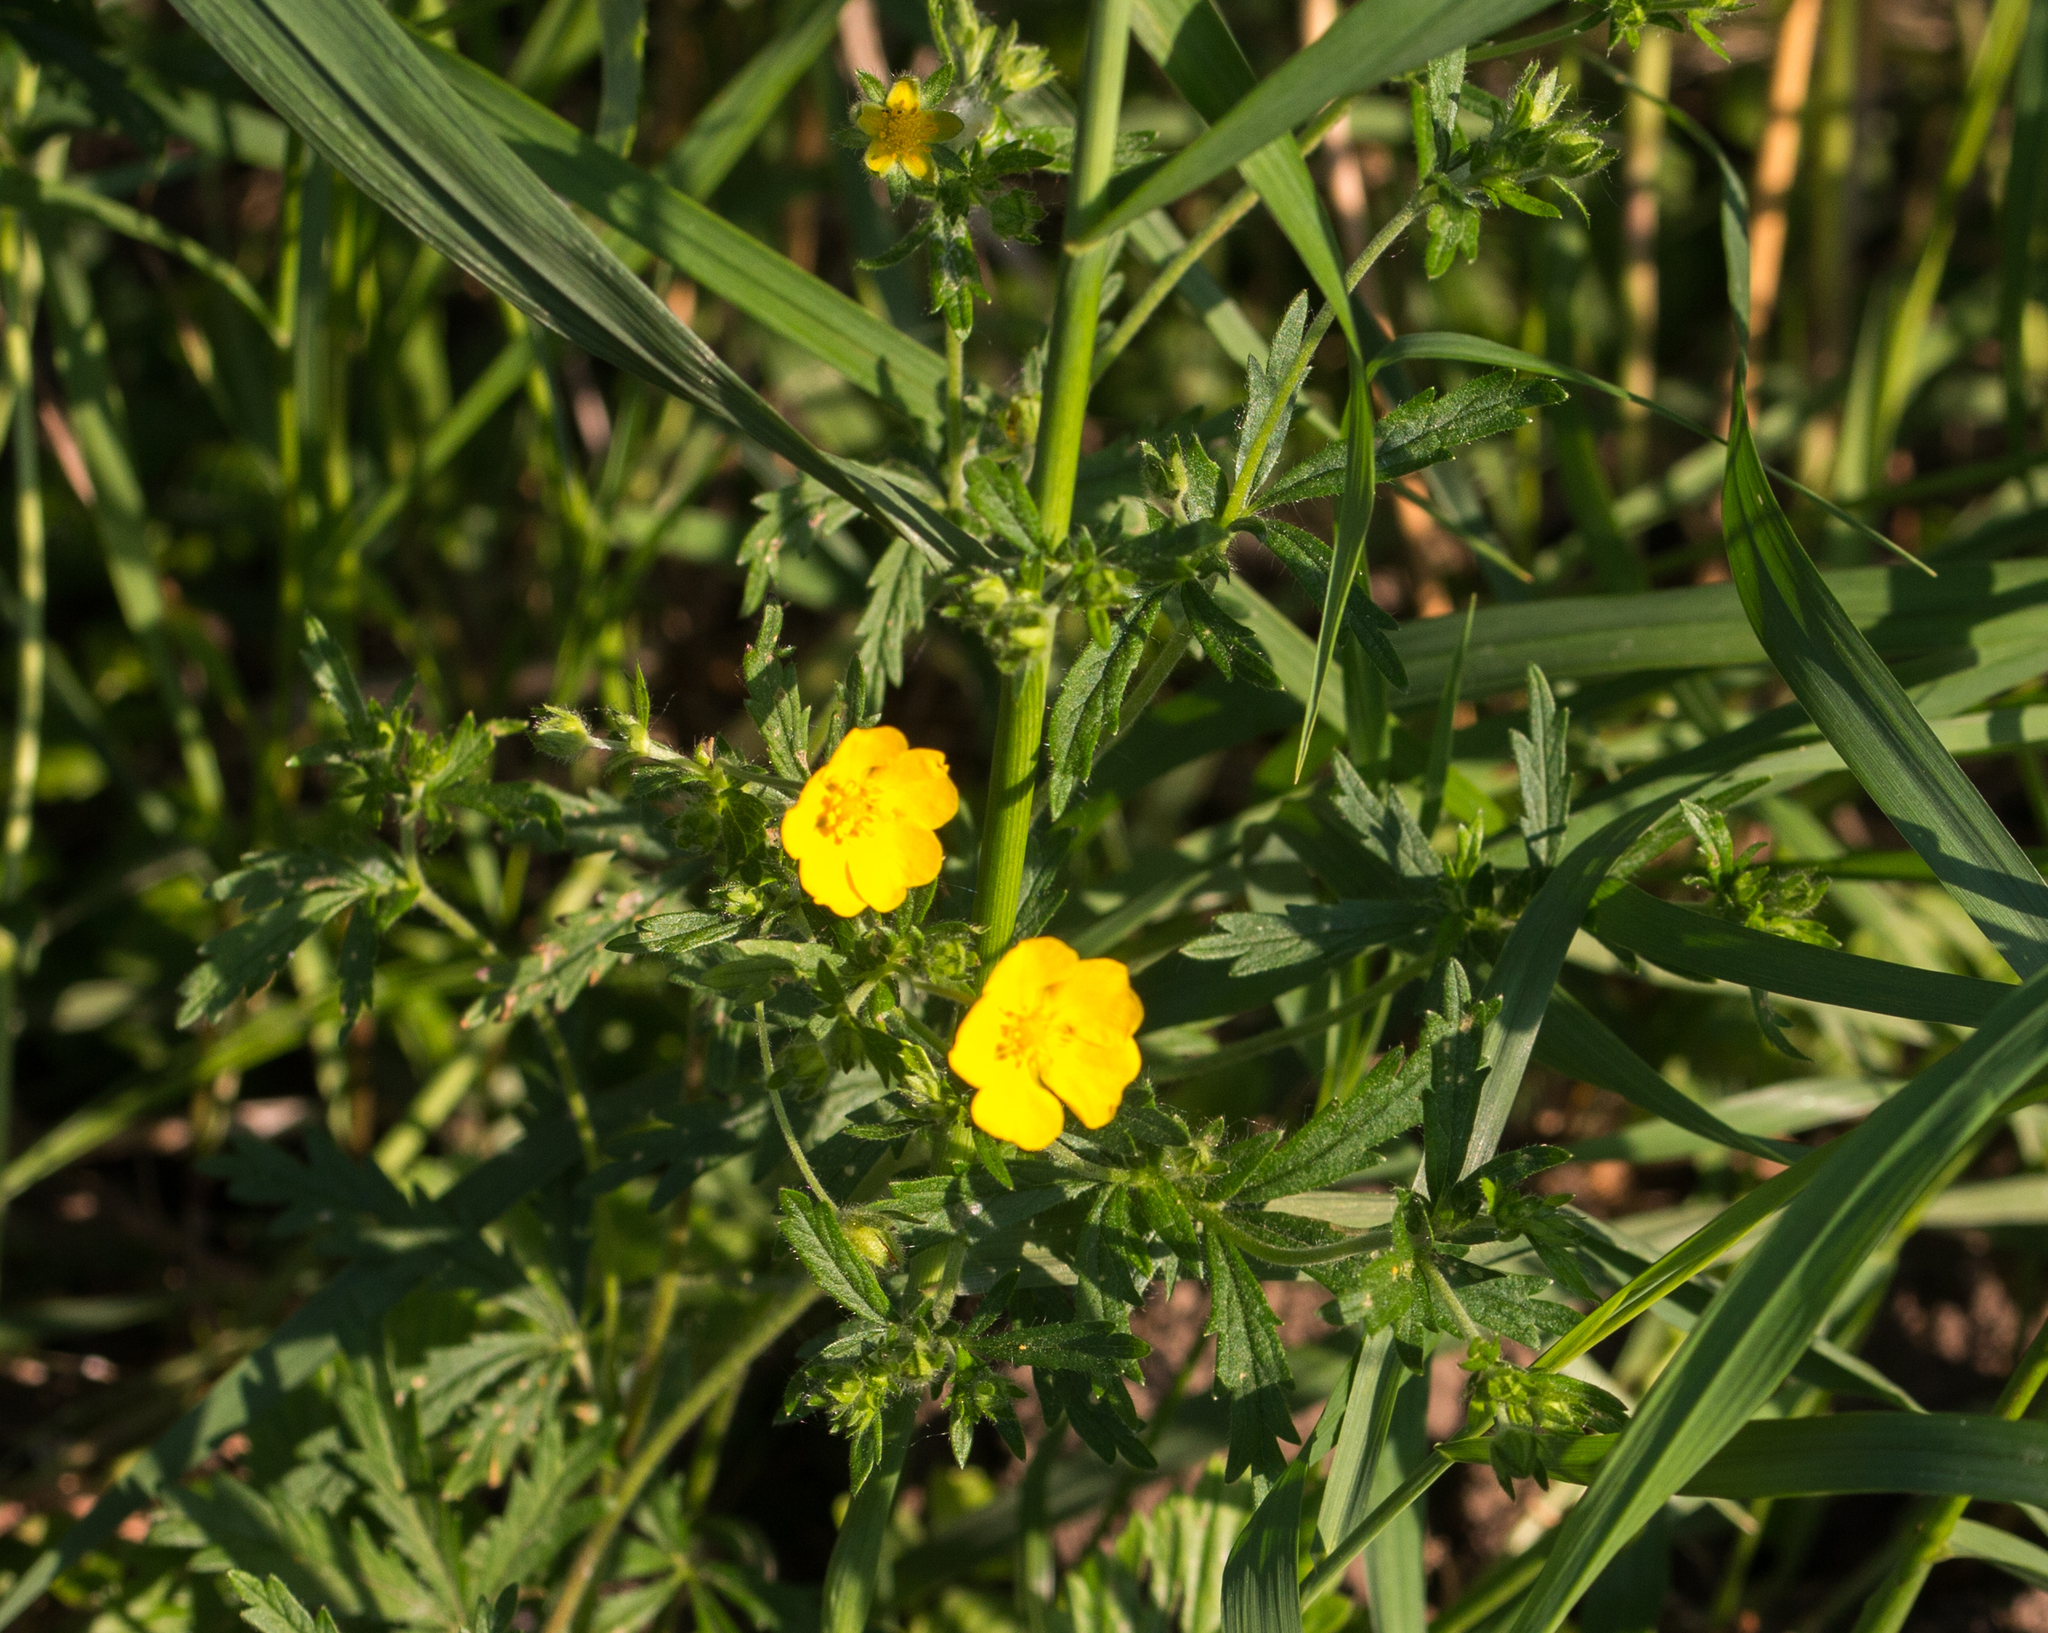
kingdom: Plantae
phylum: Tracheophyta
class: Magnoliopsida
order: Rosales
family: Rosaceae
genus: Potentilla
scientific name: Potentilla thuringiaca
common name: European cinquefoil
